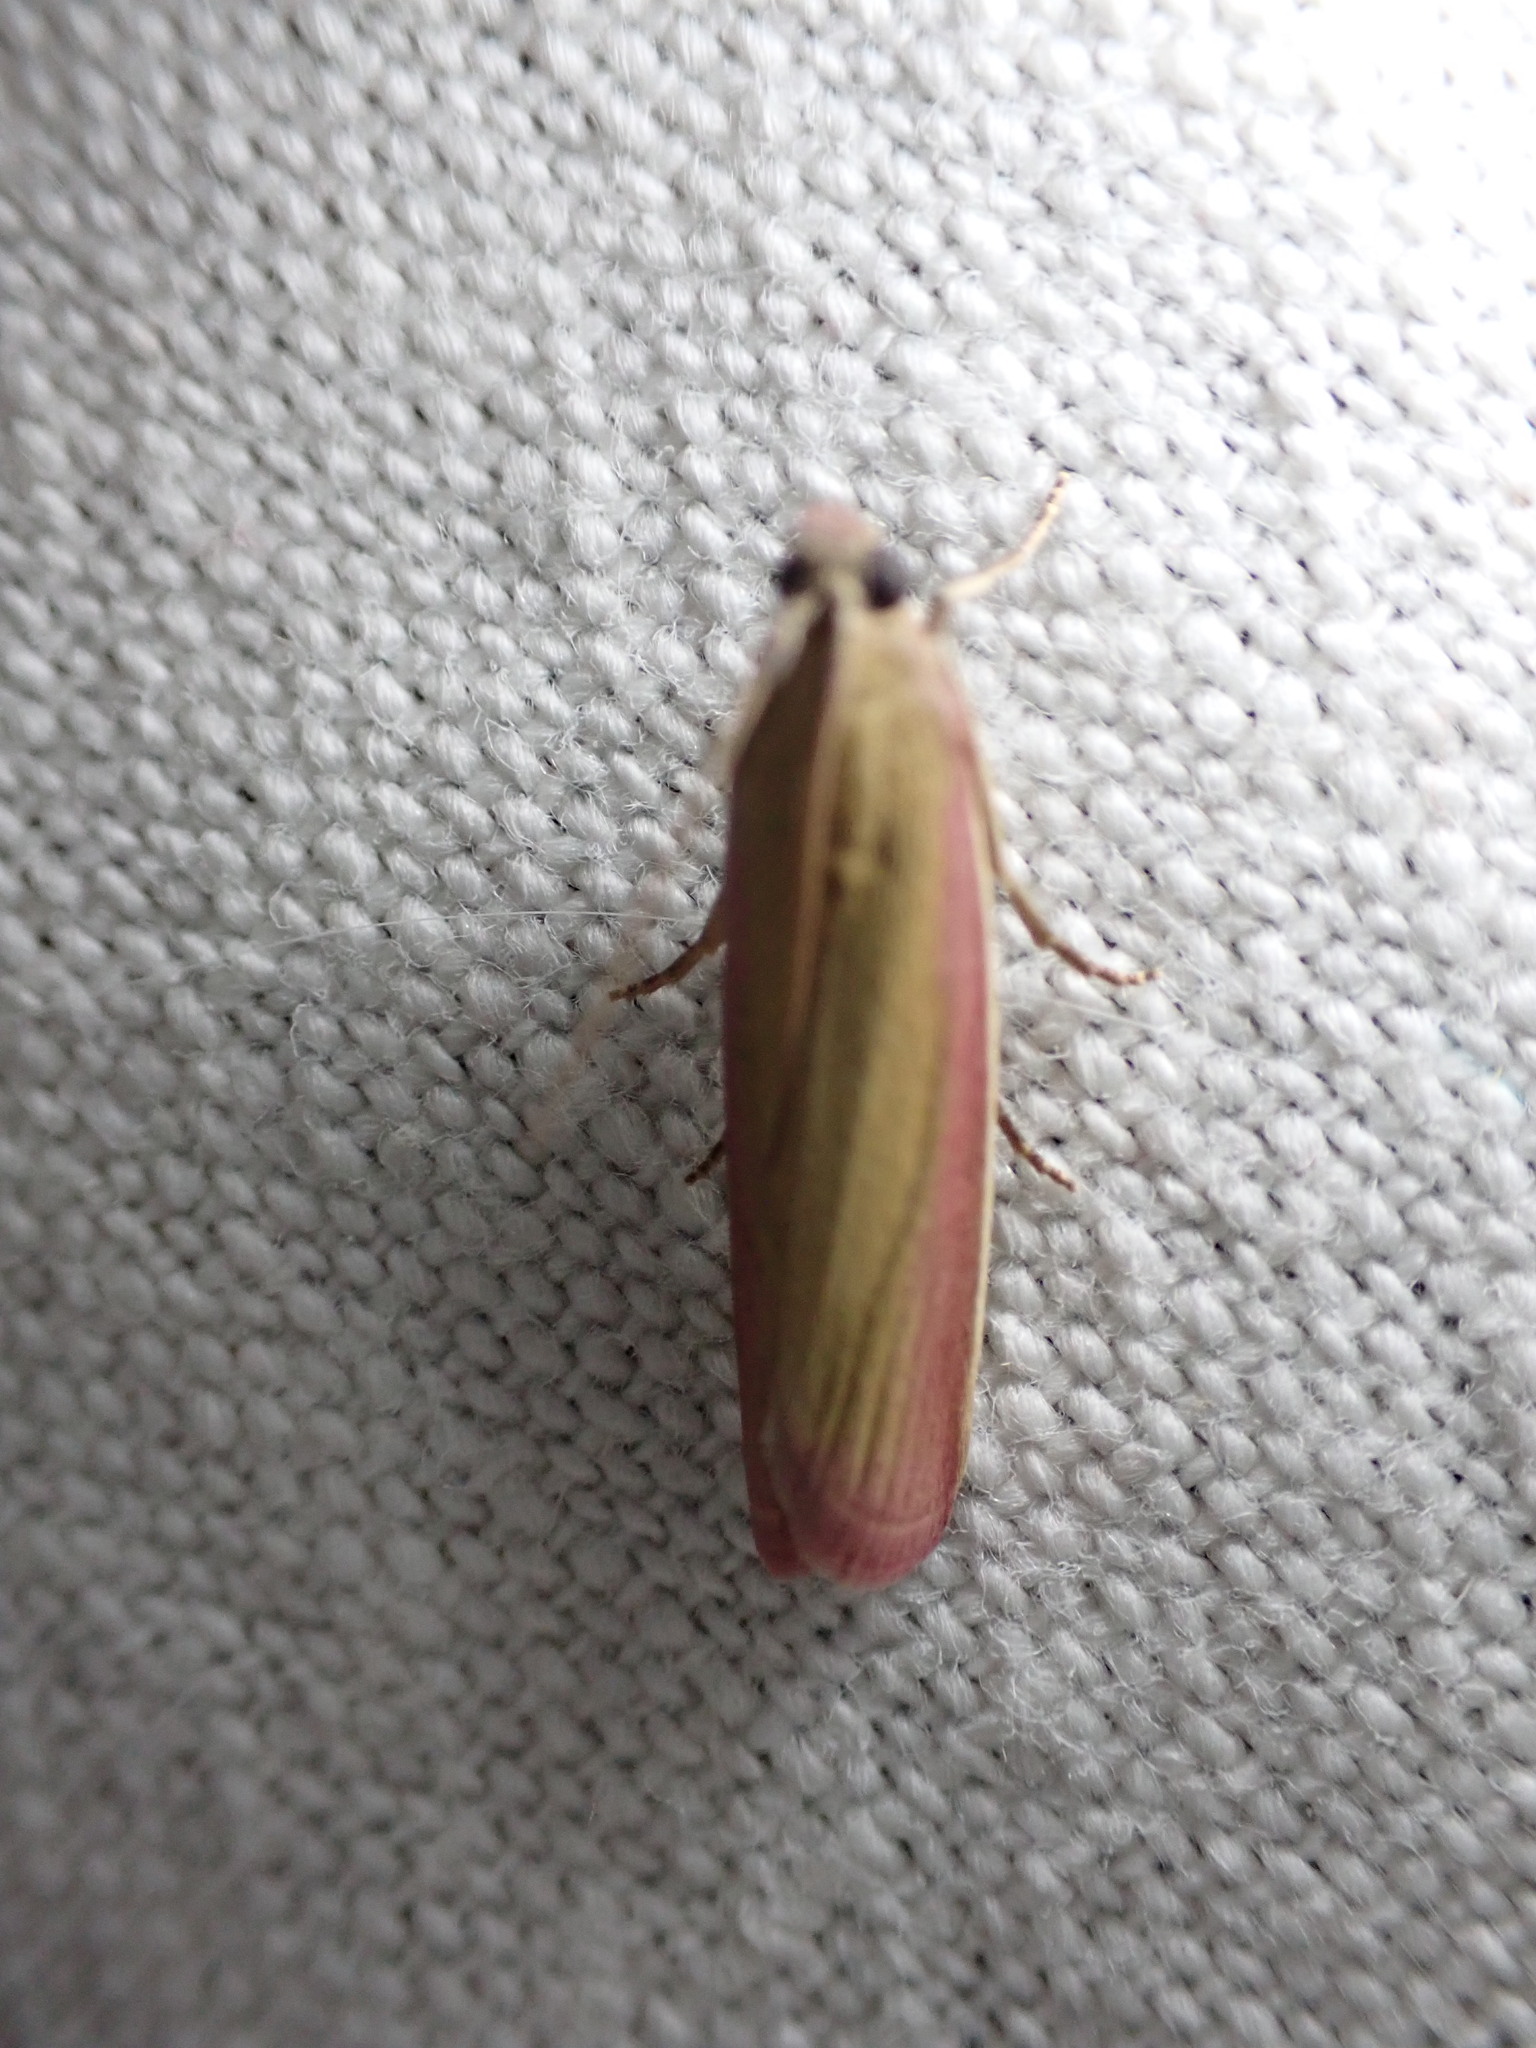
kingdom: Animalia
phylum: Arthropoda
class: Insecta
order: Lepidoptera
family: Pyralidae
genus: Oncocera
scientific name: Oncocera semirubella
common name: Rosy-striped knot-horn
